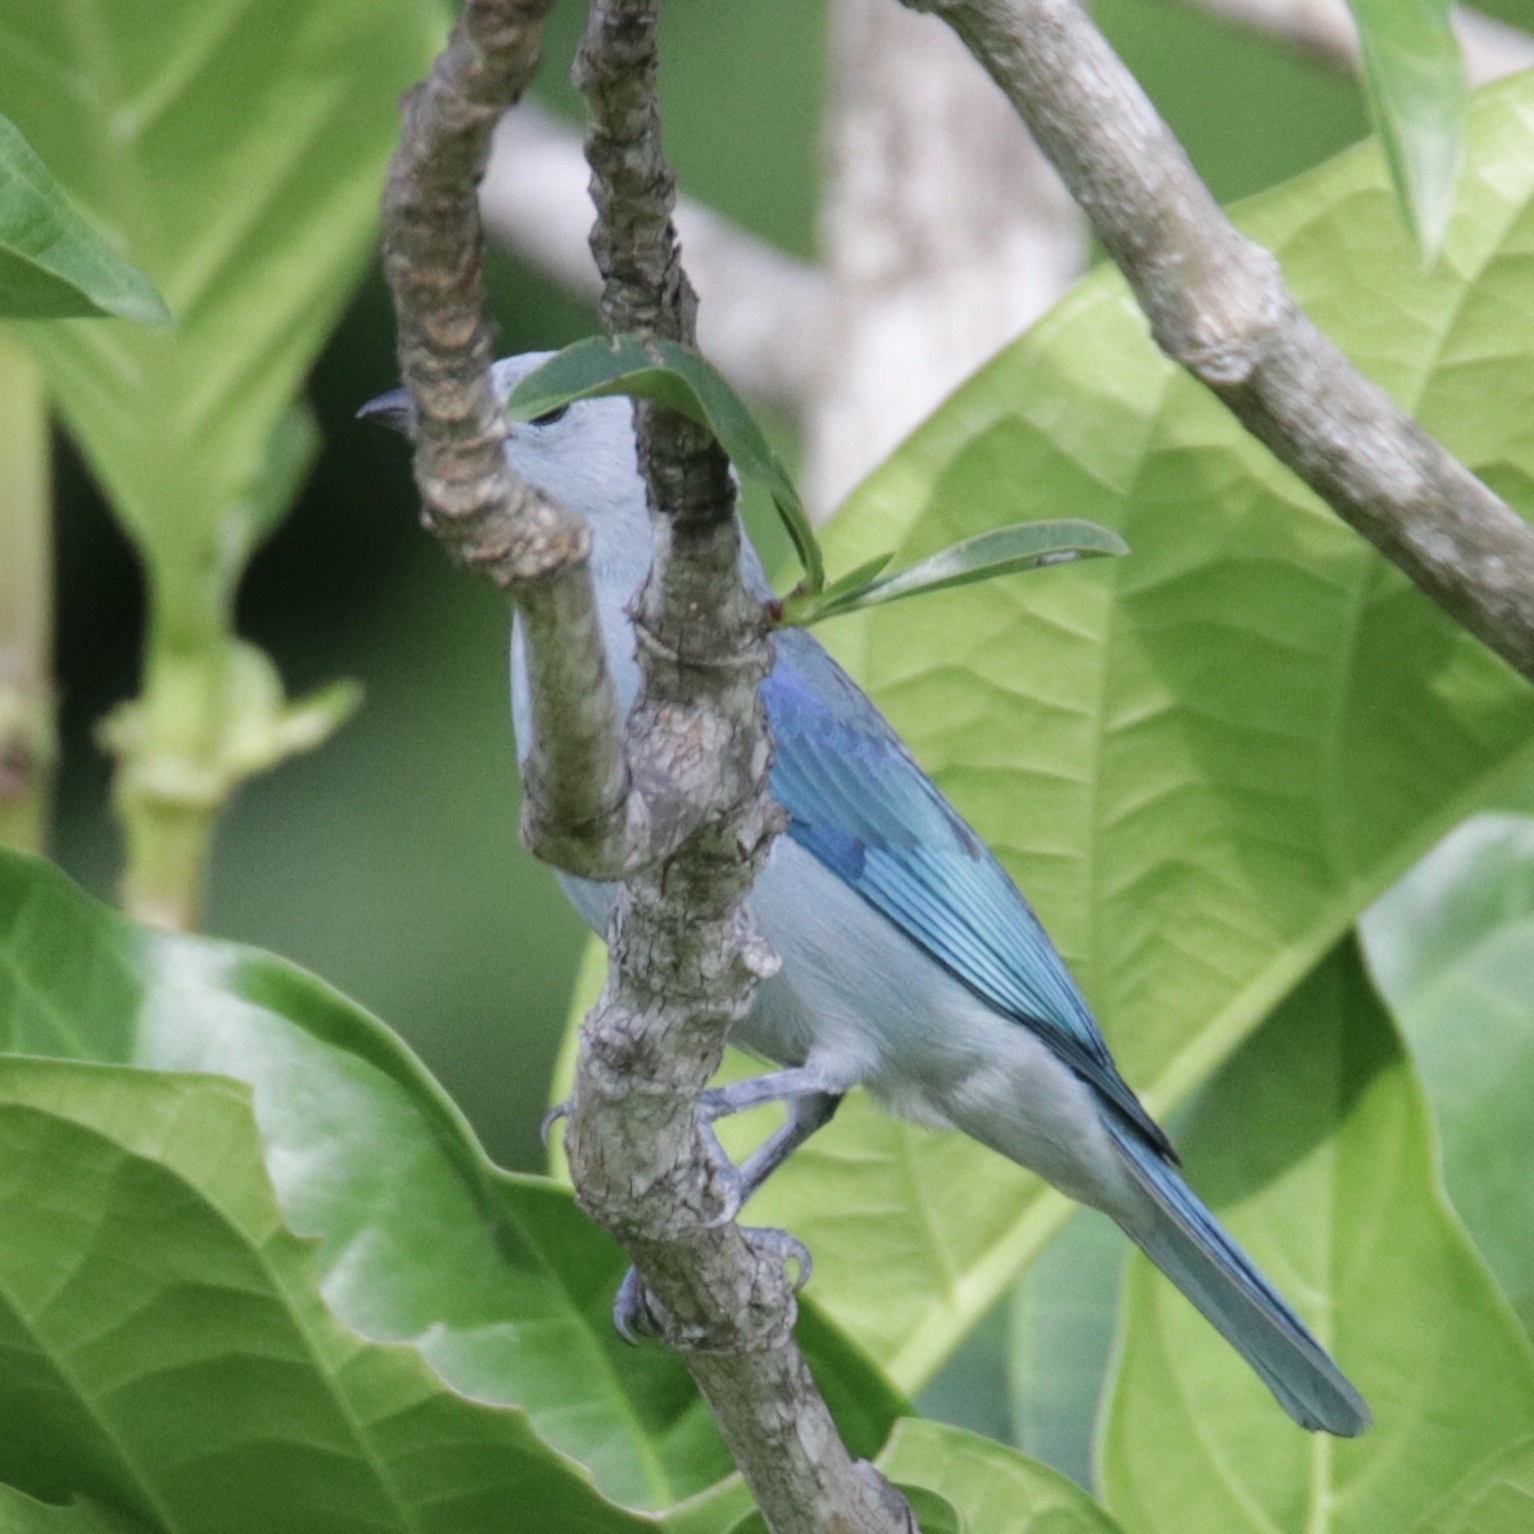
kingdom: Animalia
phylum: Chordata
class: Aves
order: Passeriformes
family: Thraupidae
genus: Thraupis
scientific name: Thraupis episcopus
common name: Blue-grey tanager
